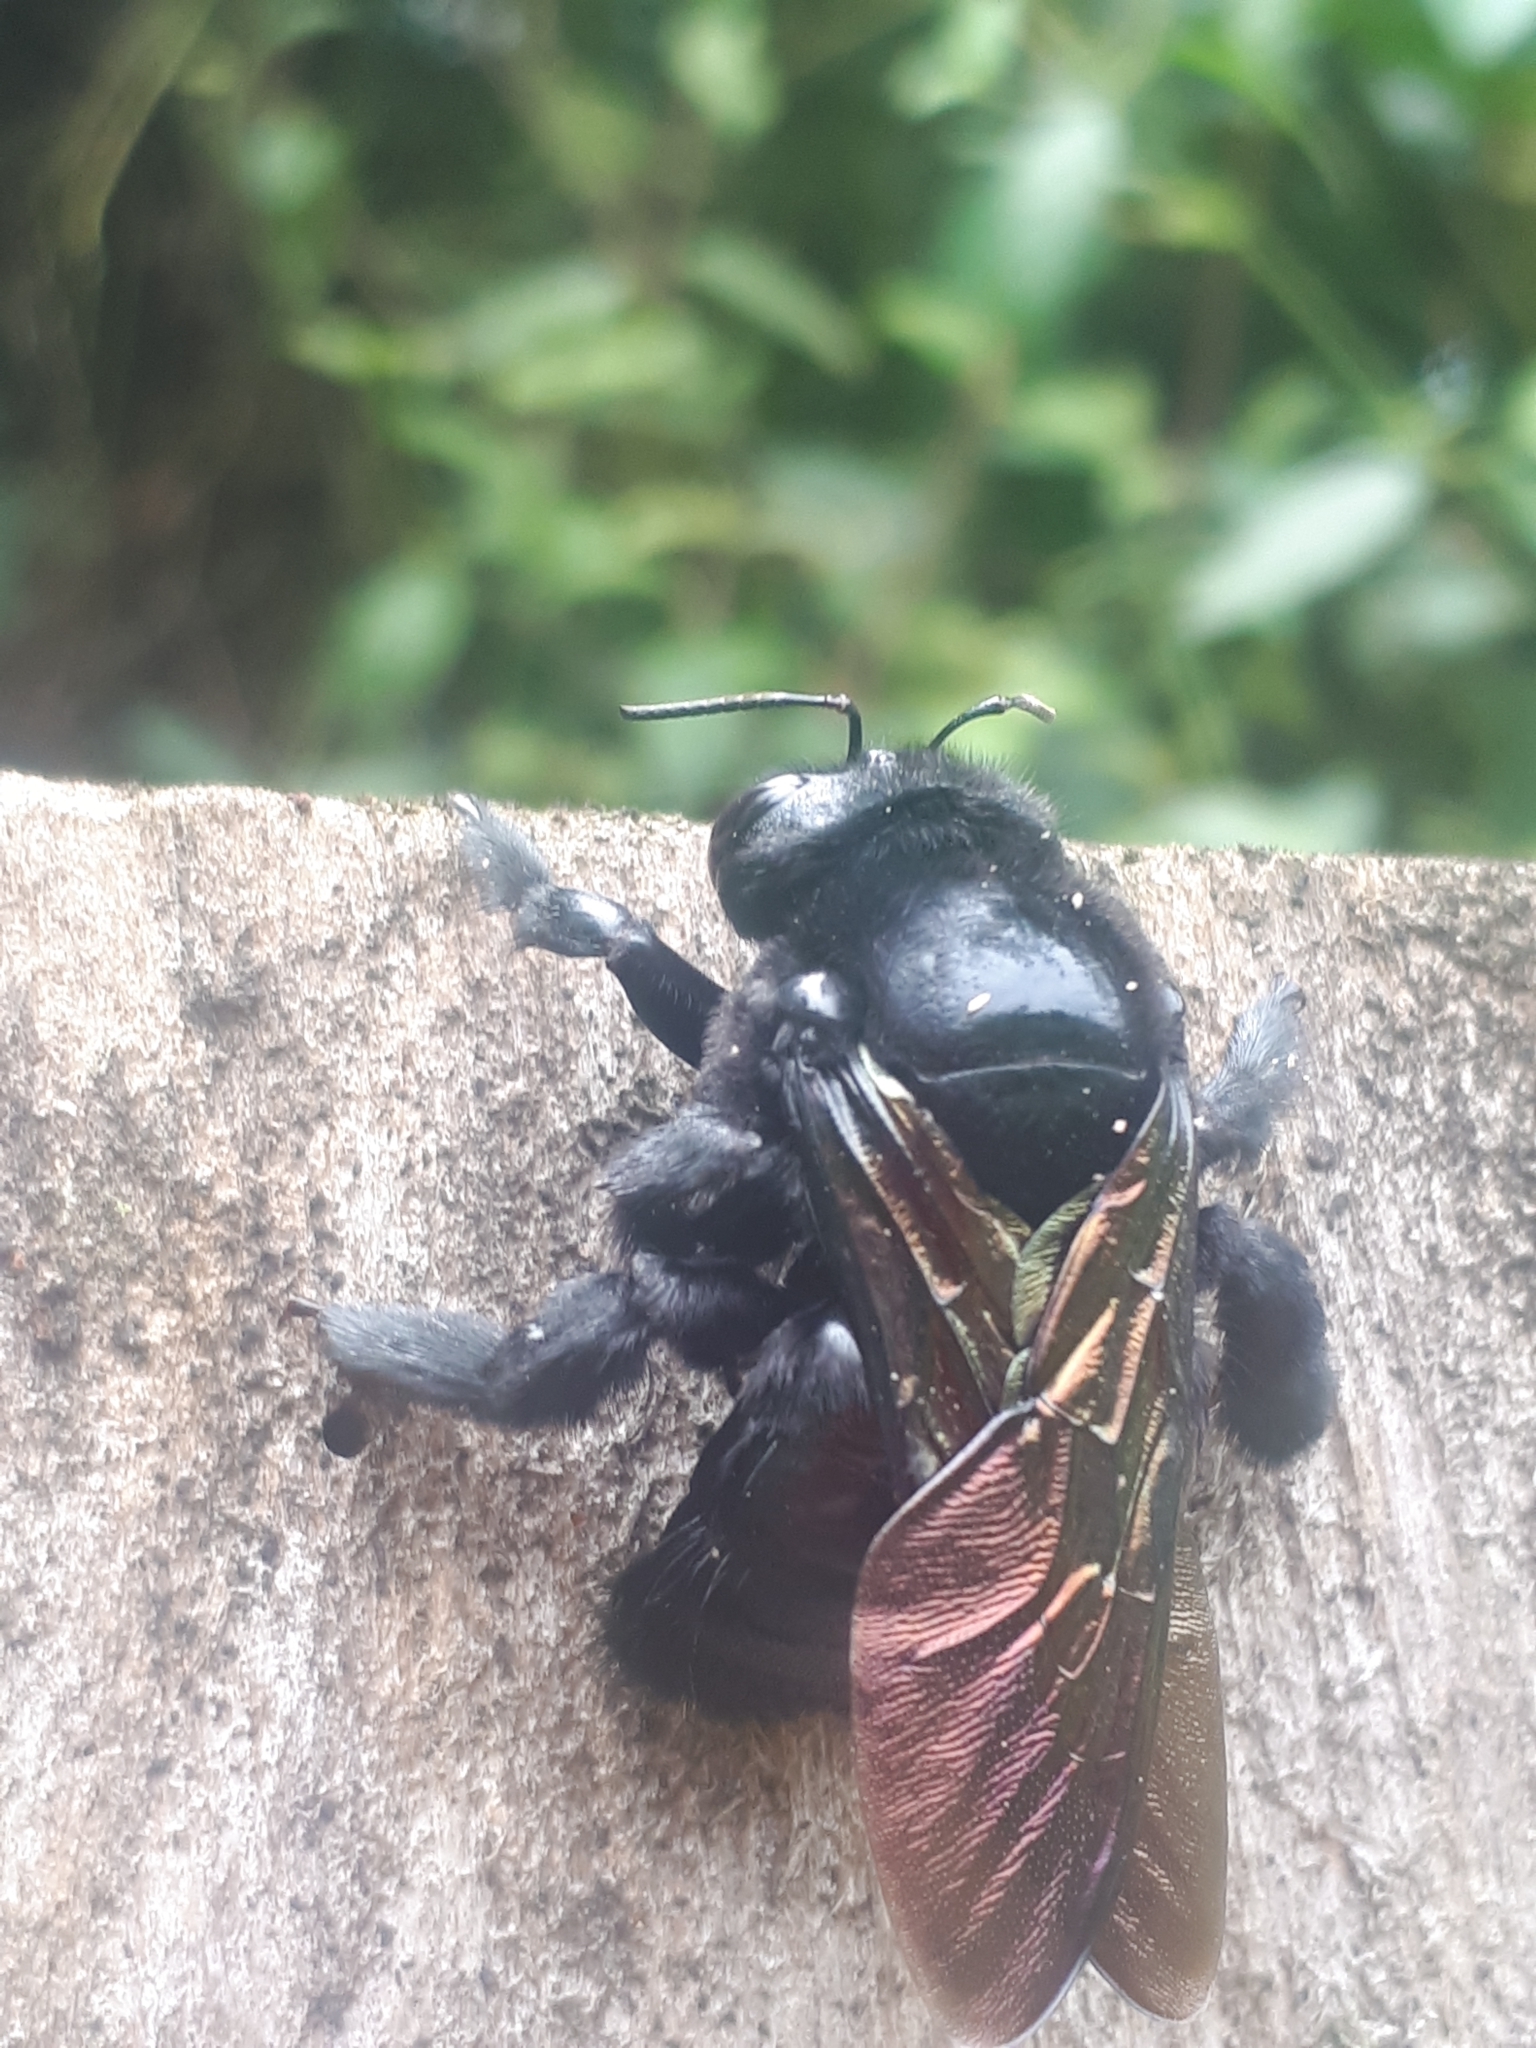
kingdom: Animalia
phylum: Arthropoda
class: Insecta
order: Hymenoptera
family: Apidae
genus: Xylocopa
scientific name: Xylocopa frontalis
